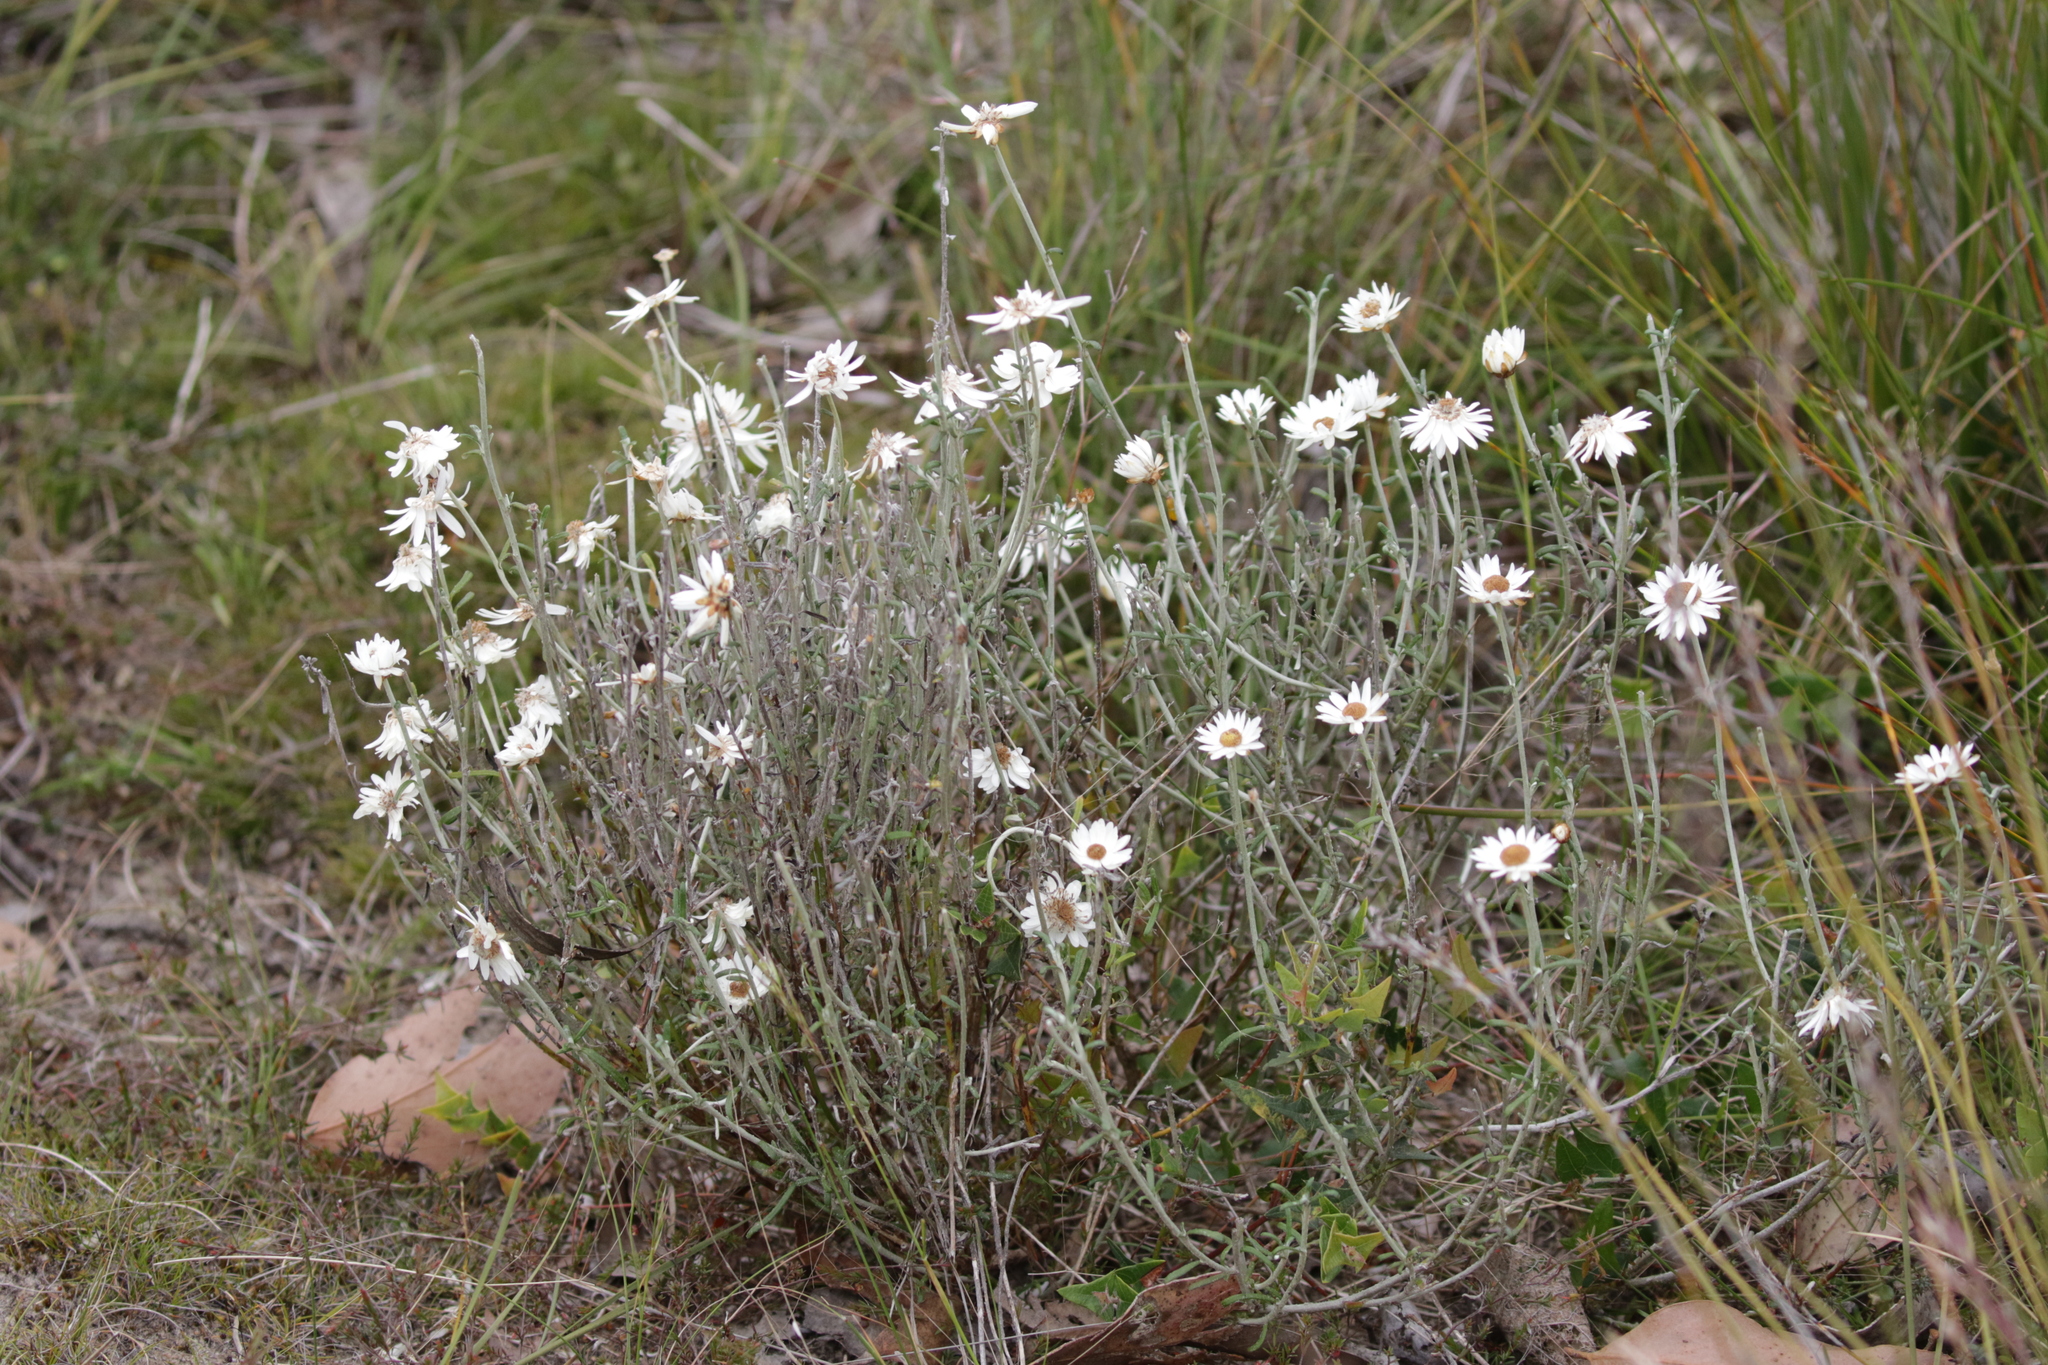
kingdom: Plantae
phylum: Tracheophyta
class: Magnoliopsida
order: Asterales
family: Asteraceae
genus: Argentipallium
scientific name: Argentipallium obtusifolium
